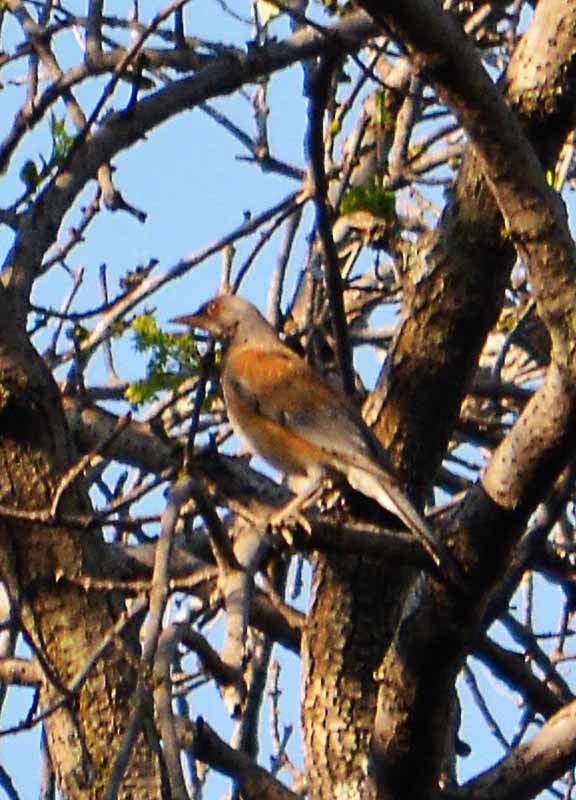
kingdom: Animalia
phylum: Chordata
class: Aves
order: Passeriformes
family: Turdidae
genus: Turdus
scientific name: Turdus rufopalliatus
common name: Rufous-backed robin
